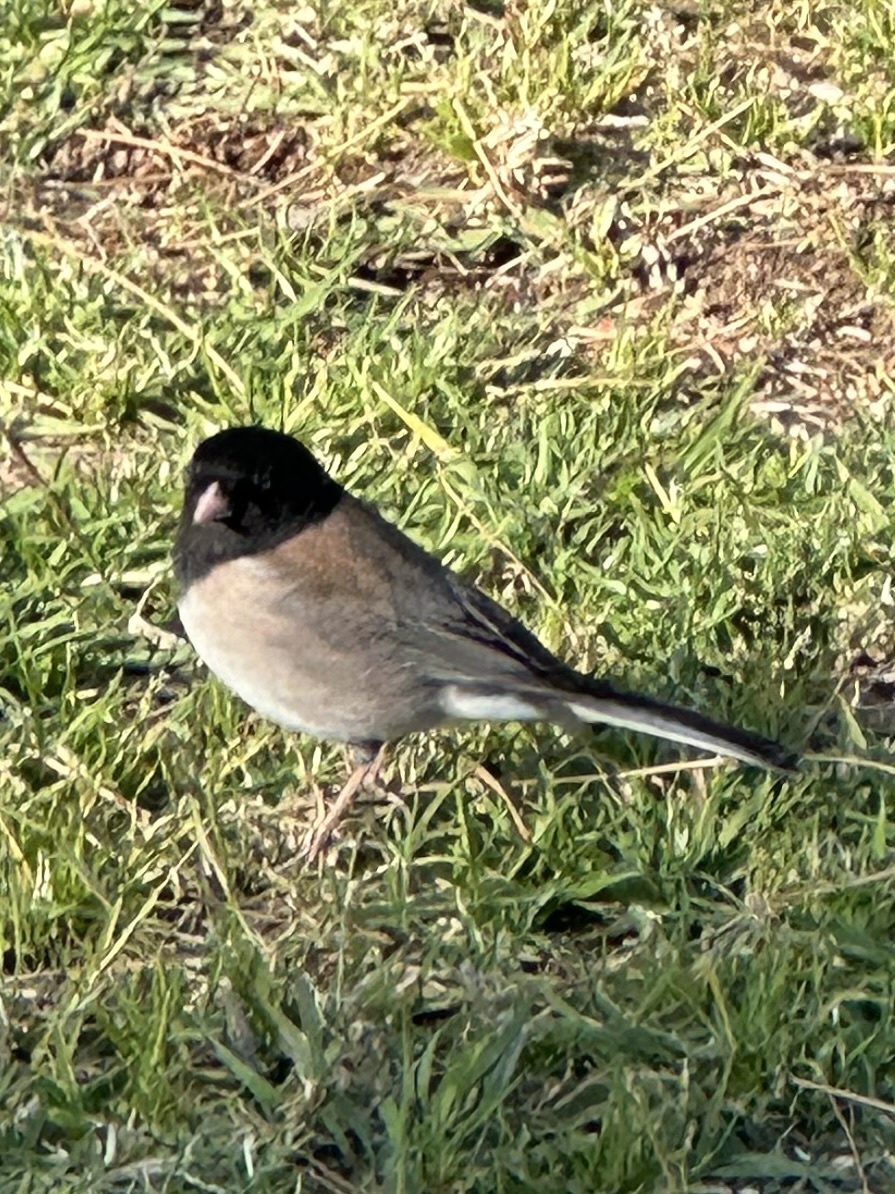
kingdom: Animalia
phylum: Chordata
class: Aves
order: Passeriformes
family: Passerellidae
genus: Junco
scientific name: Junco hyemalis
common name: Dark-eyed junco
